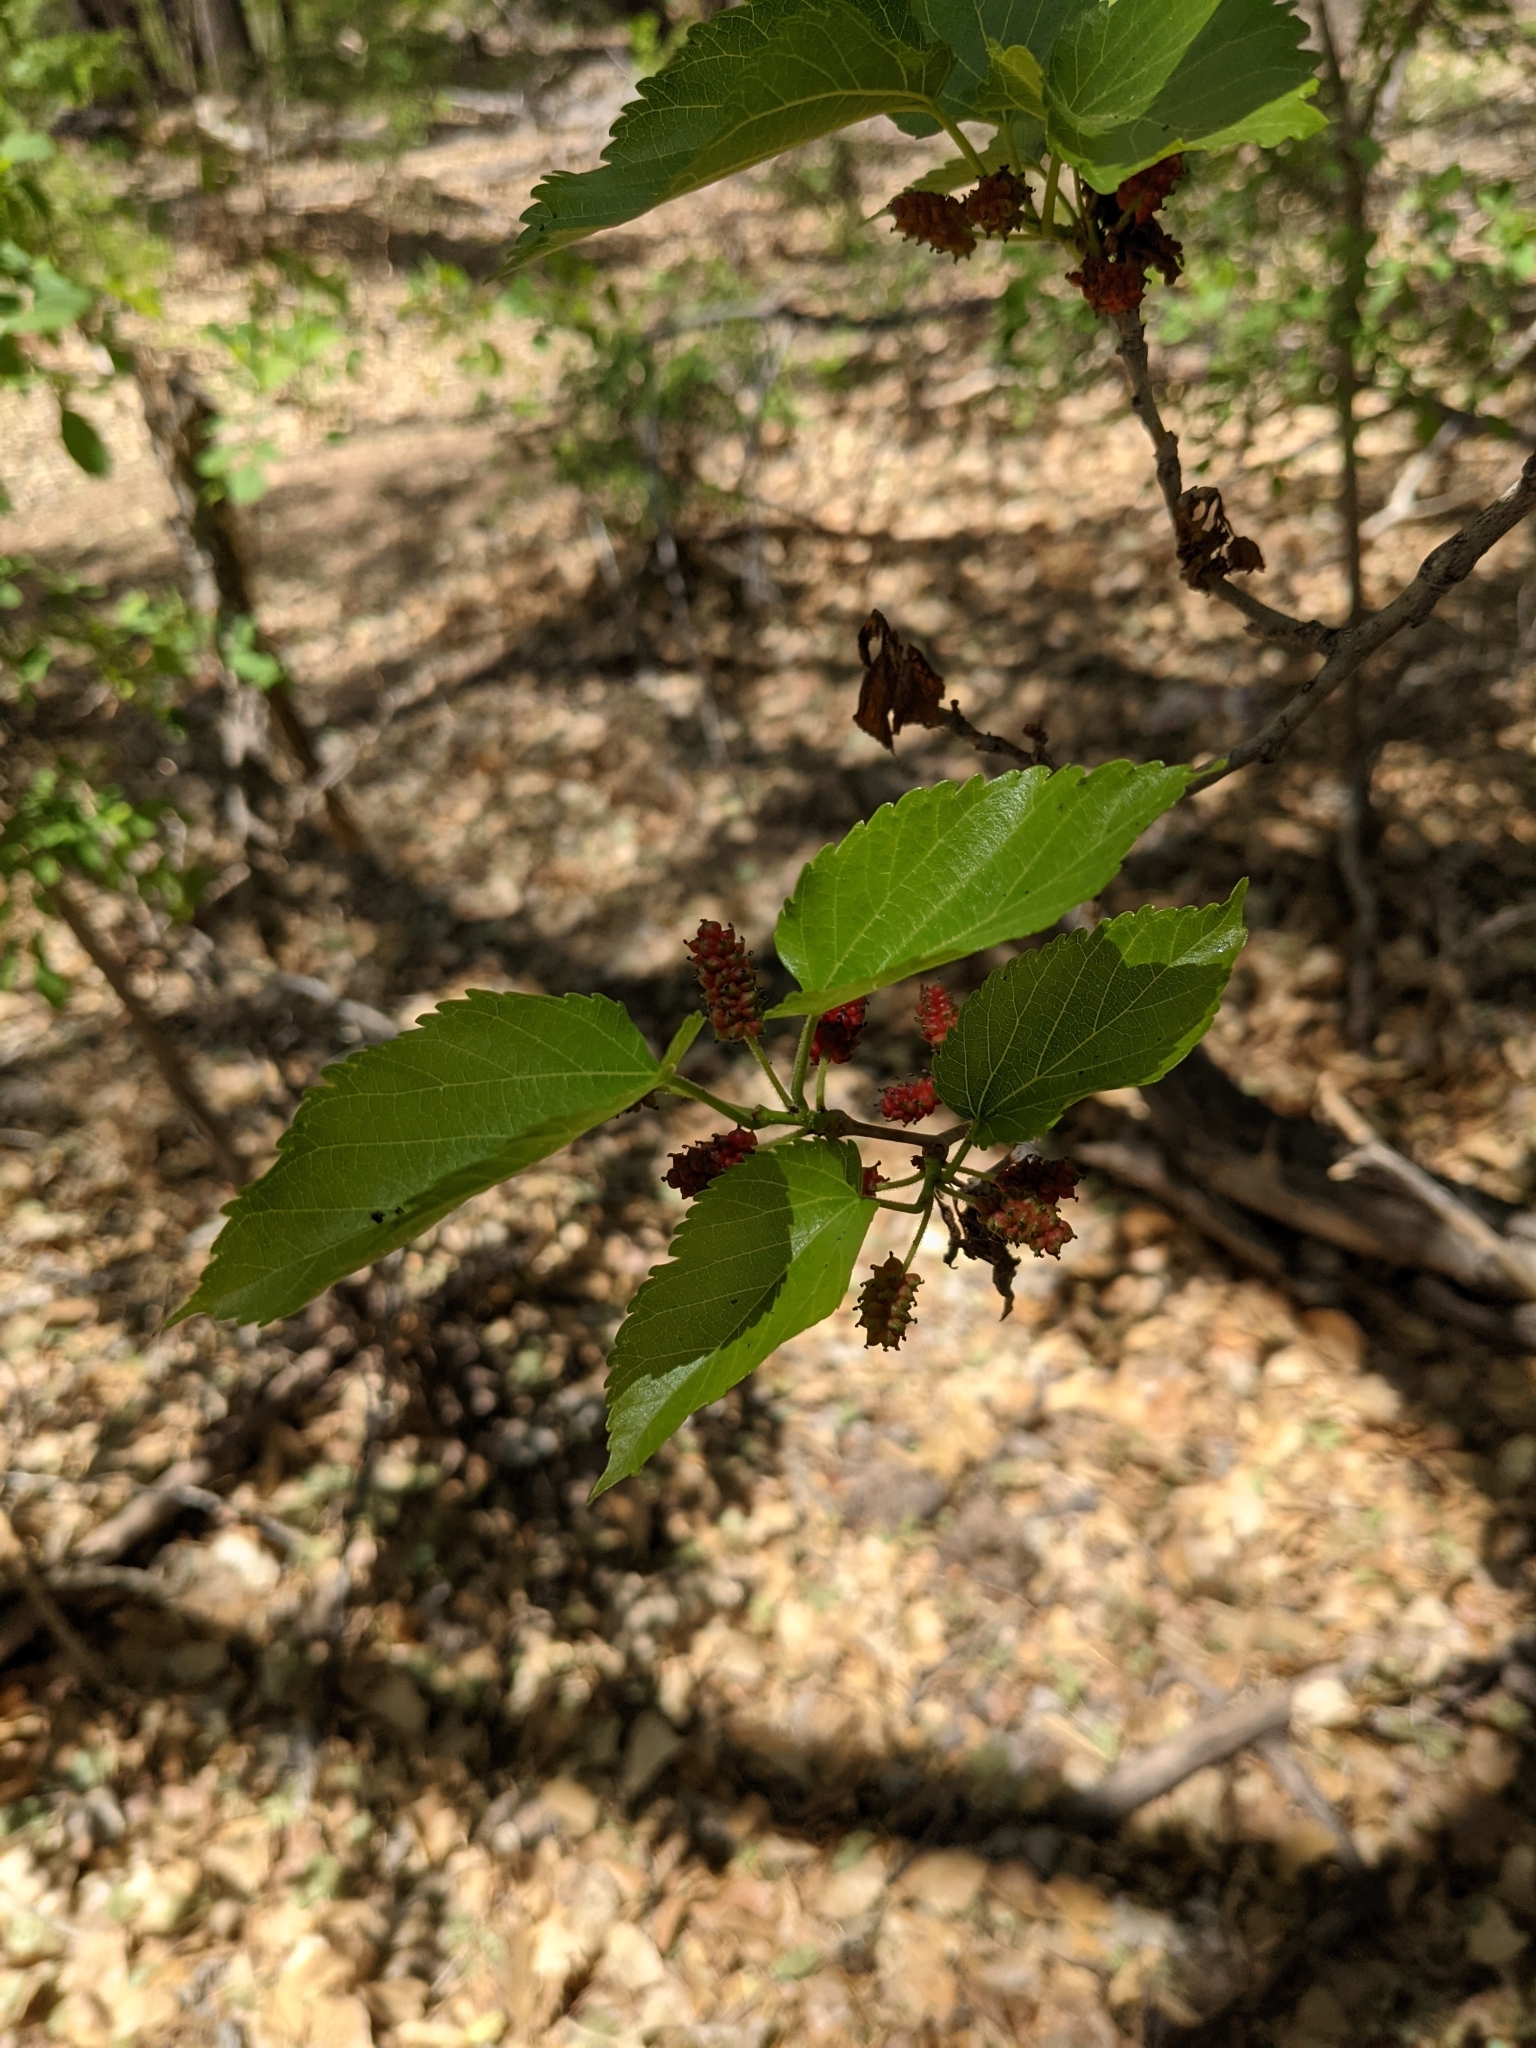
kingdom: Plantae
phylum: Tracheophyta
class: Magnoliopsida
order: Rosales
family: Moraceae
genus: Morus
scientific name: Morus alba
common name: White mulberry
